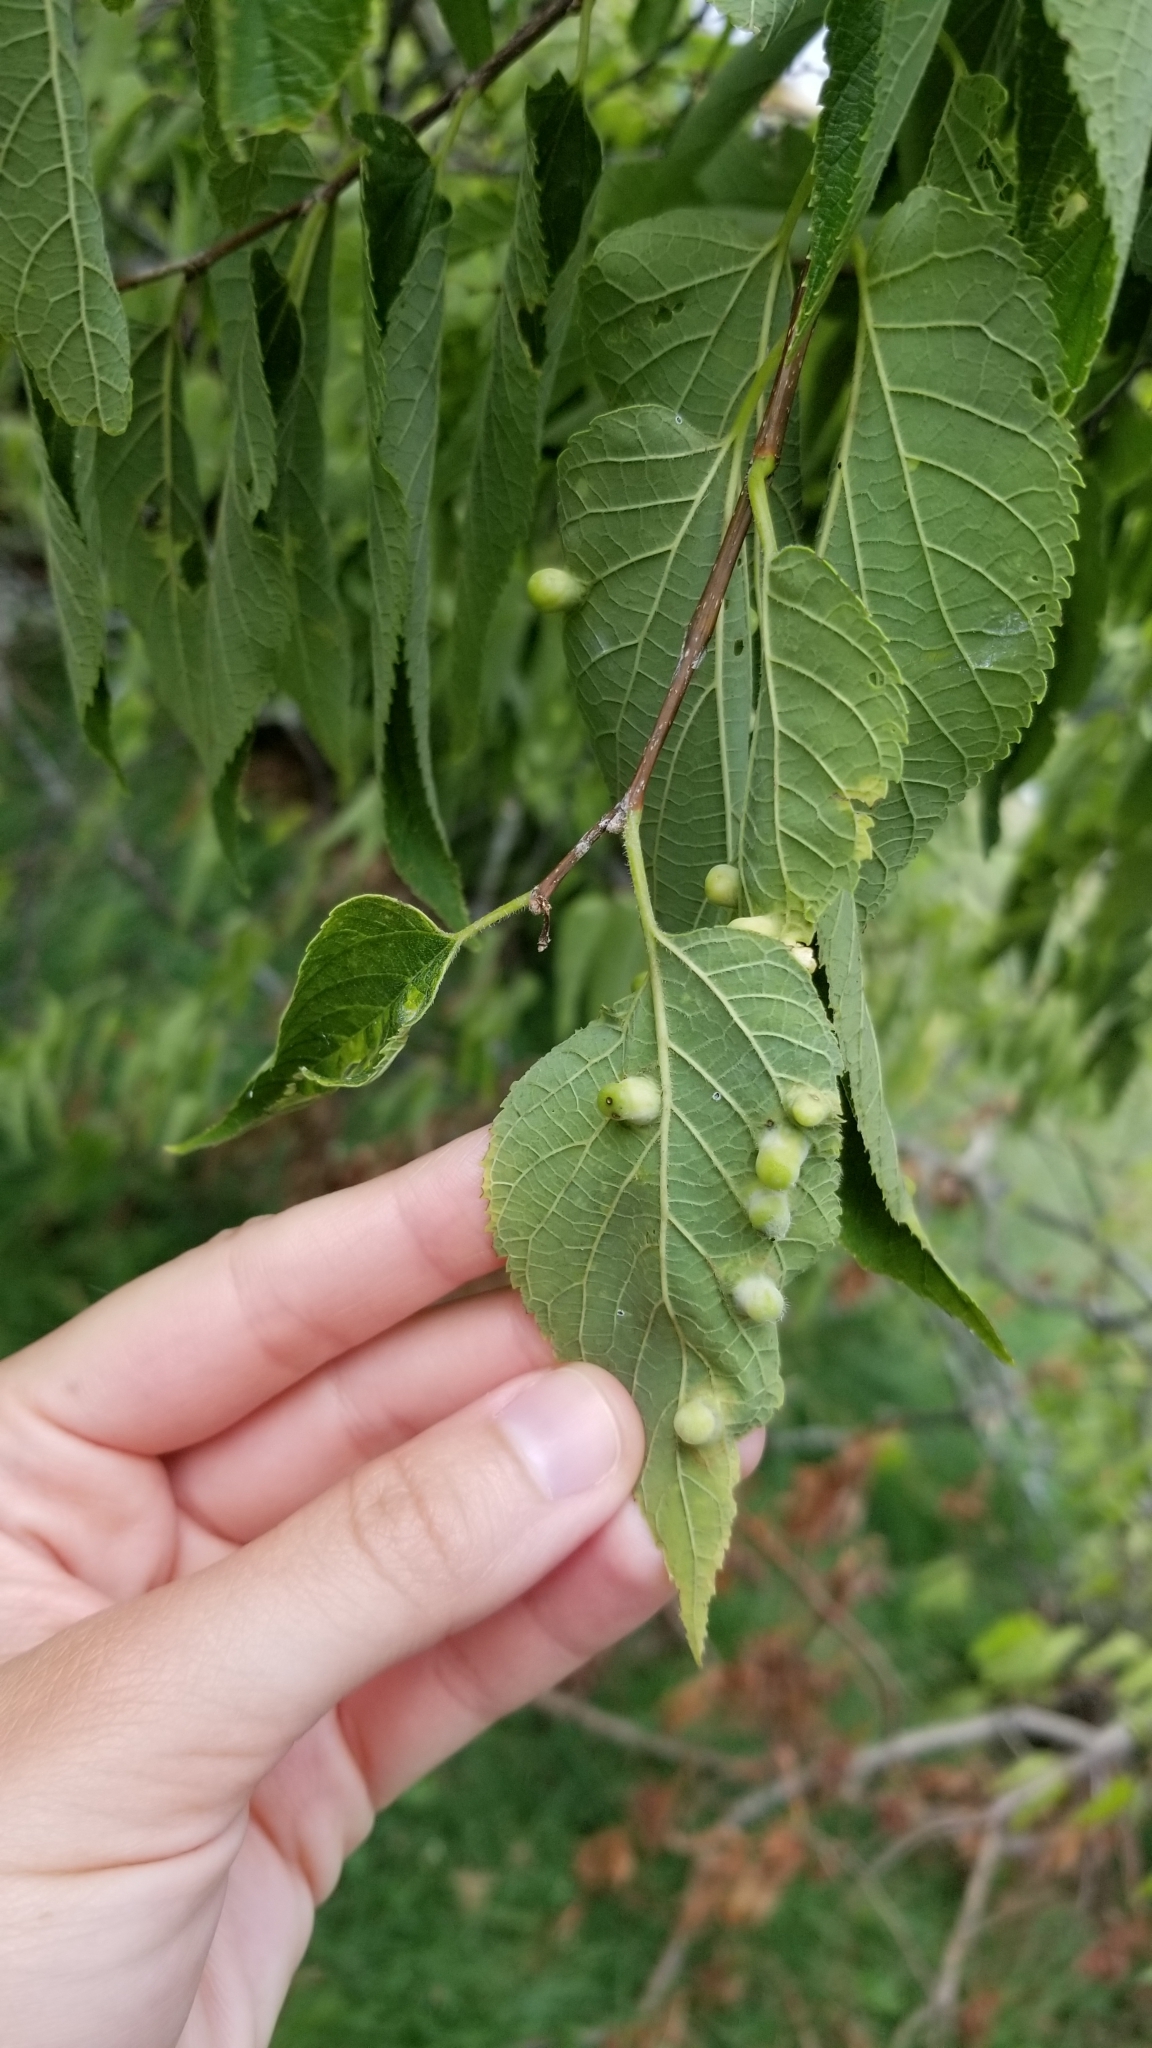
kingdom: Animalia
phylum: Arthropoda
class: Insecta
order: Hemiptera
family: Aphalaridae
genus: Pachypsylla
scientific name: Pachypsylla celtidismamma
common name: Hackberry nipplegall psyllid
